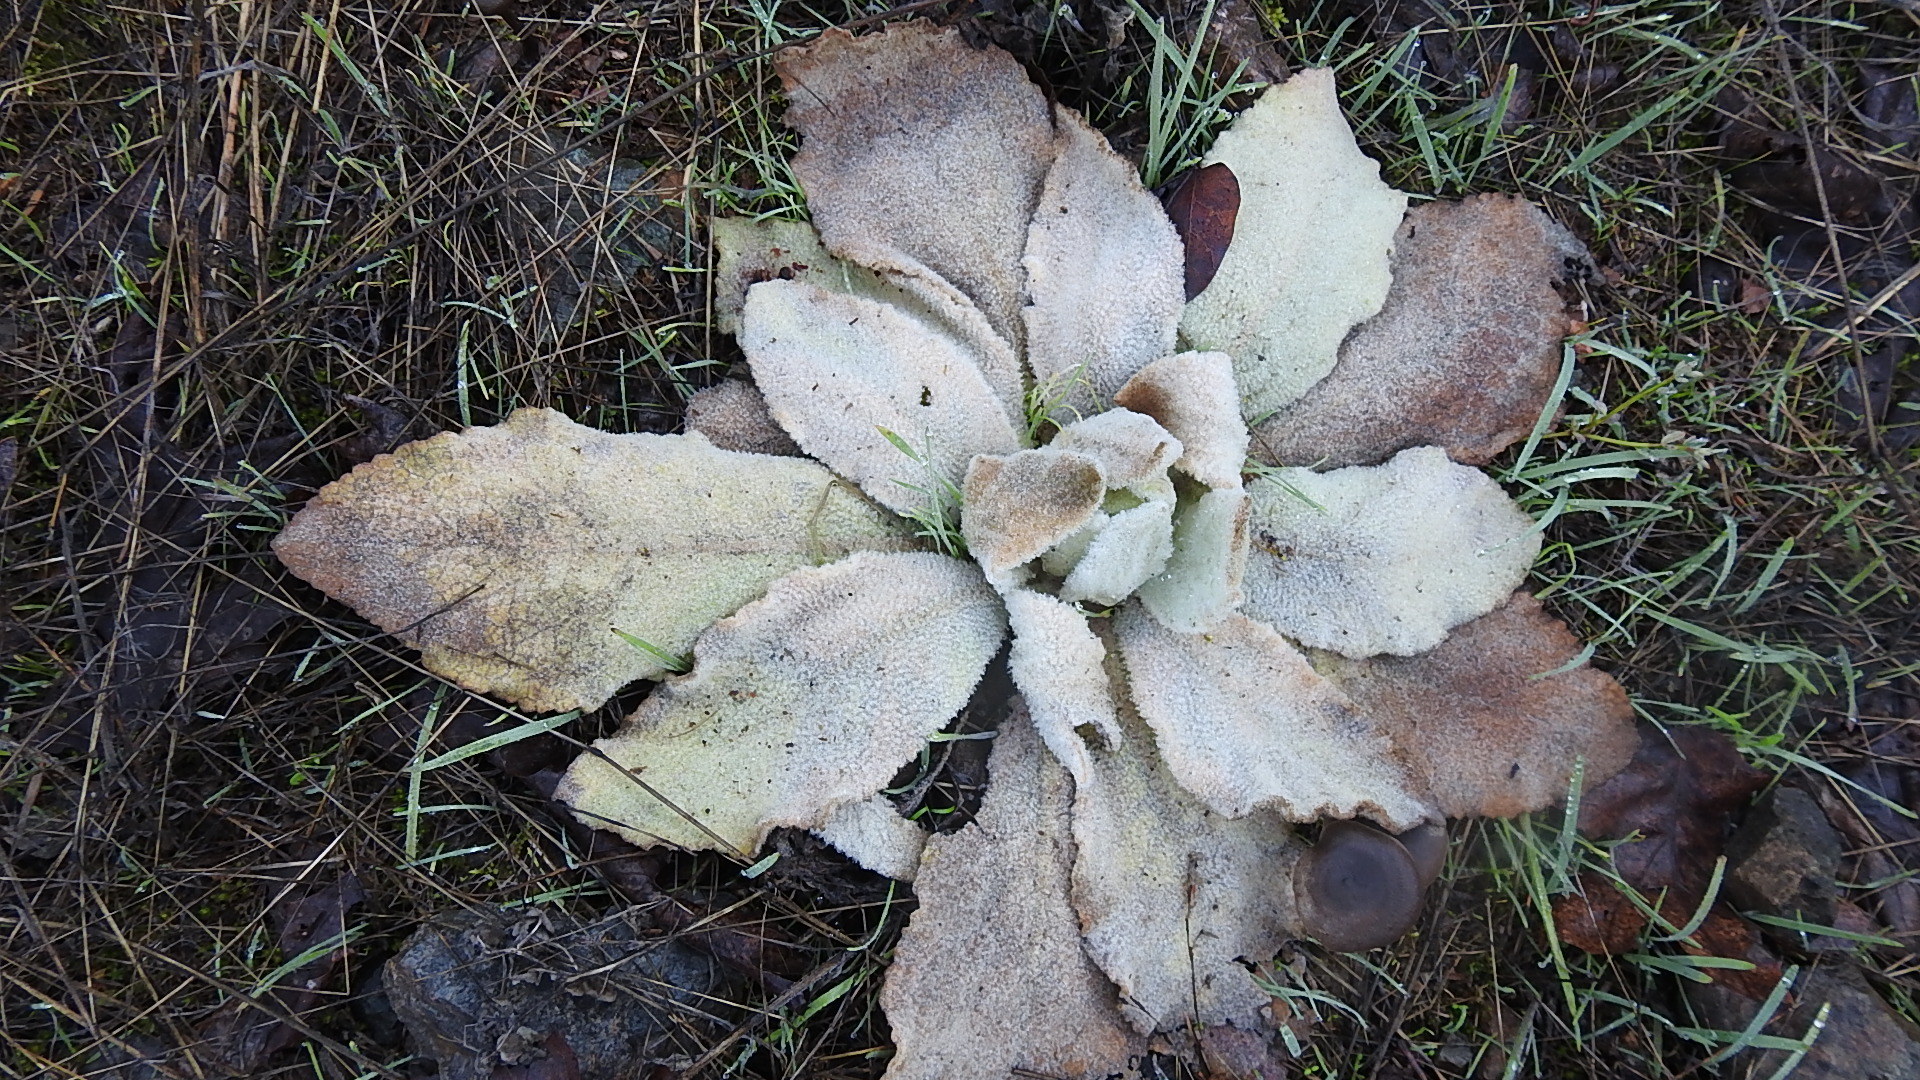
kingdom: Plantae
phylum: Tracheophyta
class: Magnoliopsida
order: Lamiales
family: Scrophulariaceae
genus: Verbascum
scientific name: Verbascum thapsus
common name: Common mullein
